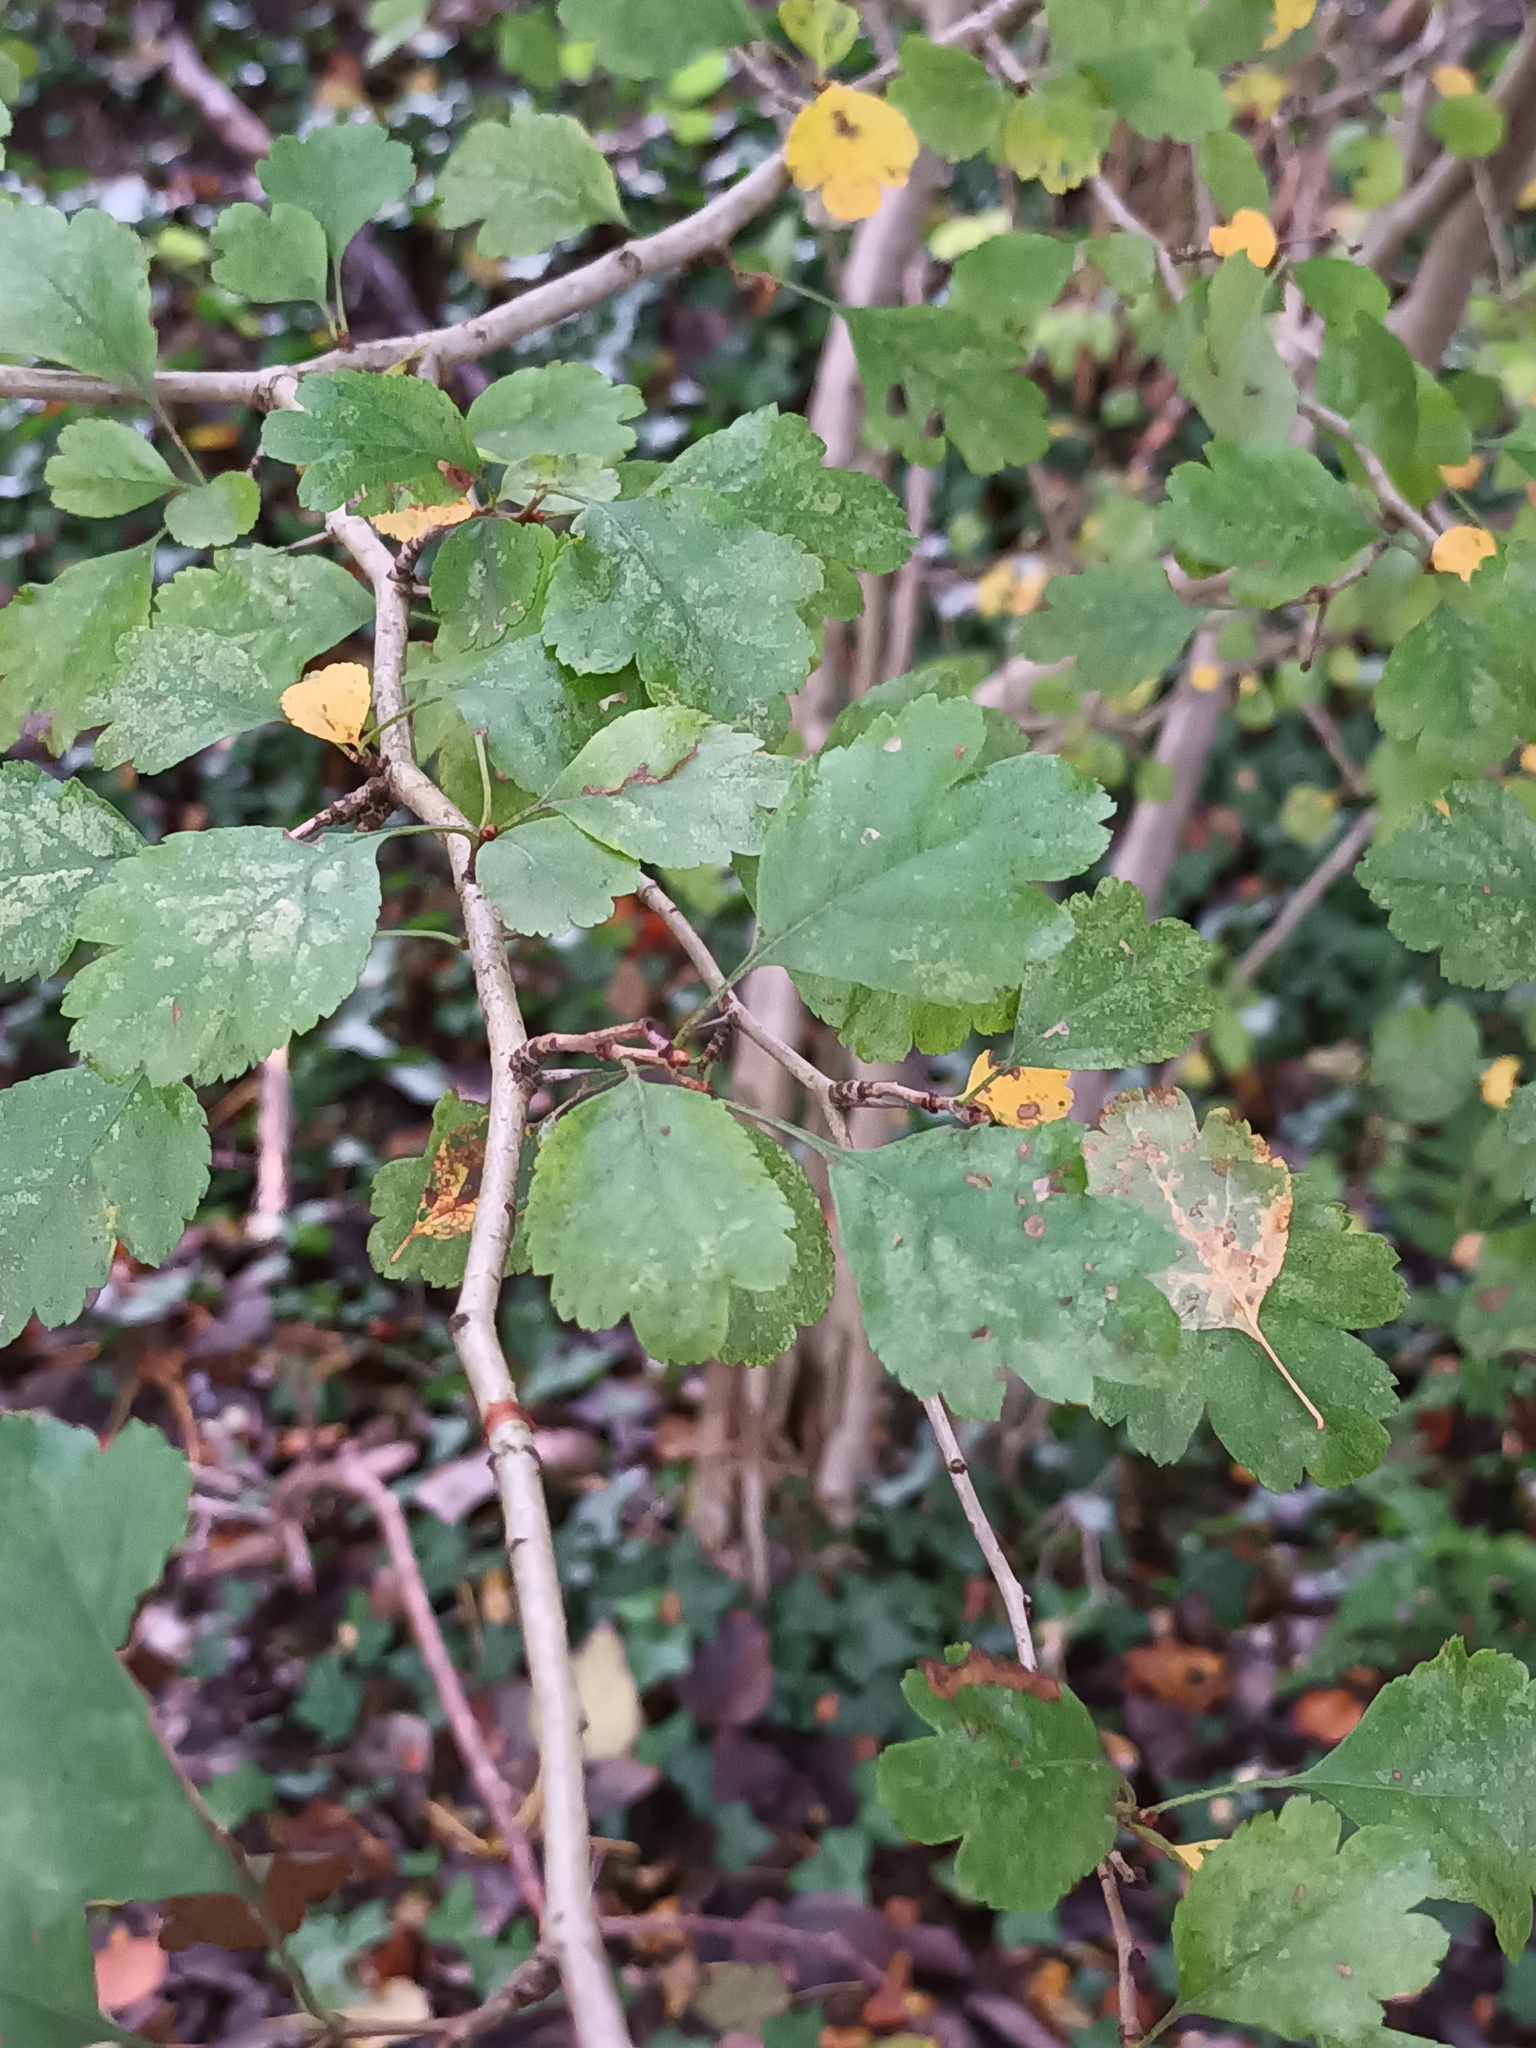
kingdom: Plantae
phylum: Tracheophyta
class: Magnoliopsida
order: Rosales
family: Rosaceae
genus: Crataegus
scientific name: Crataegus laevigata
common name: Midland hawthorn
